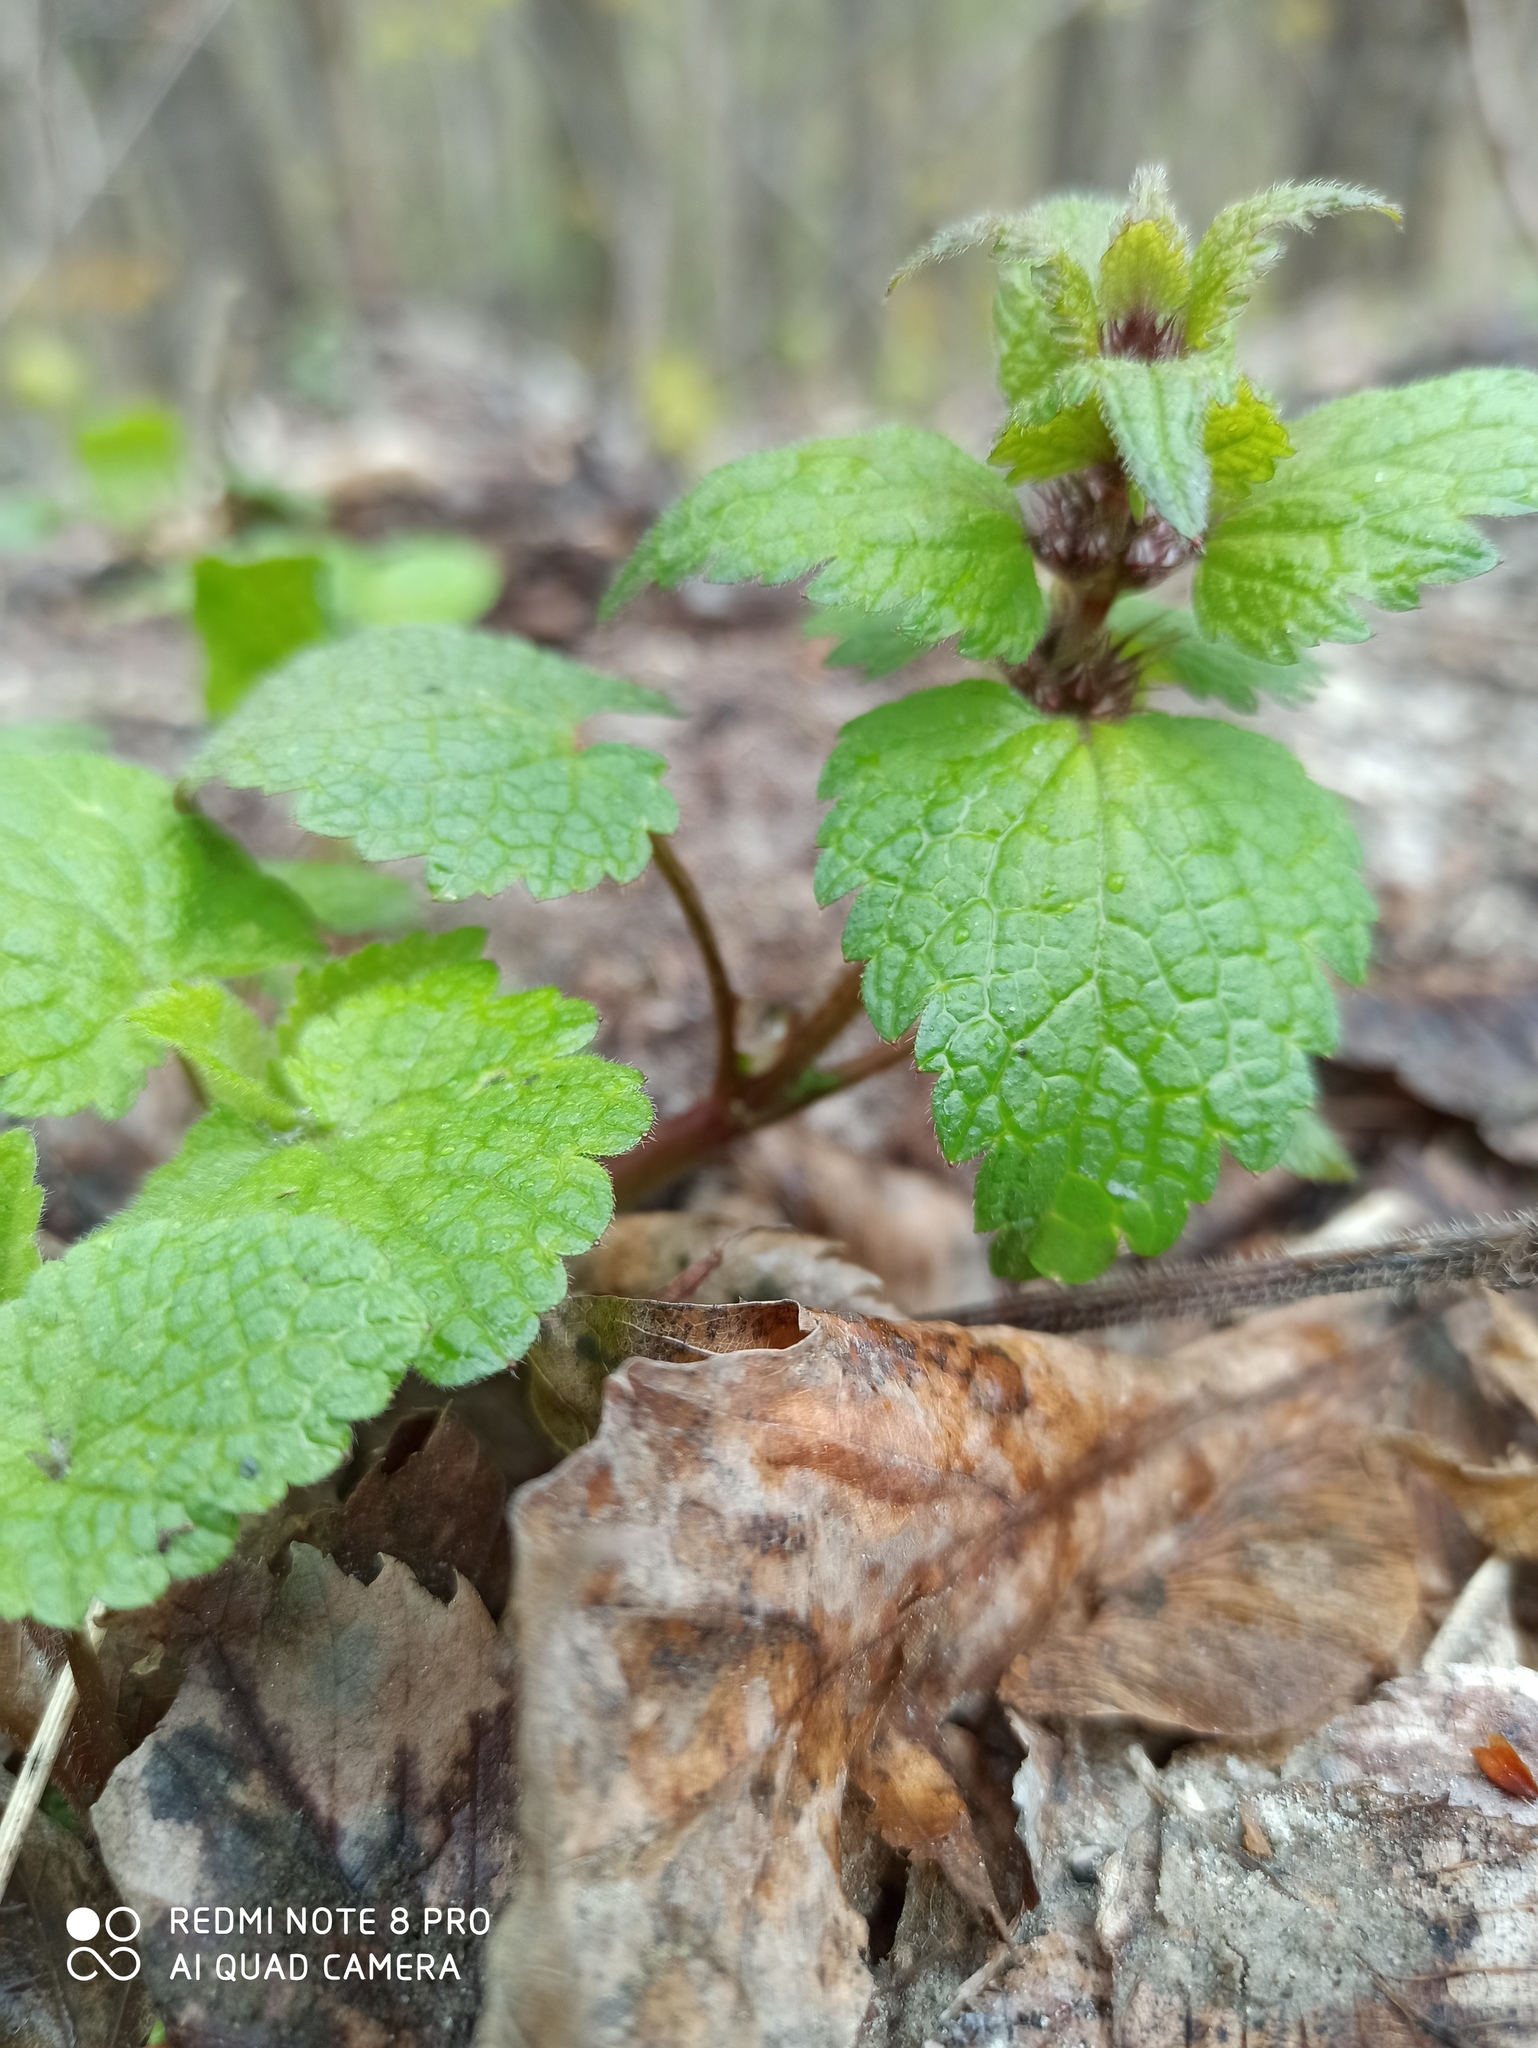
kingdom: Plantae
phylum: Tracheophyta
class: Magnoliopsida
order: Lamiales
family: Lamiaceae
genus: Lamium
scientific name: Lamium maculatum
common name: Spotted dead-nettle
